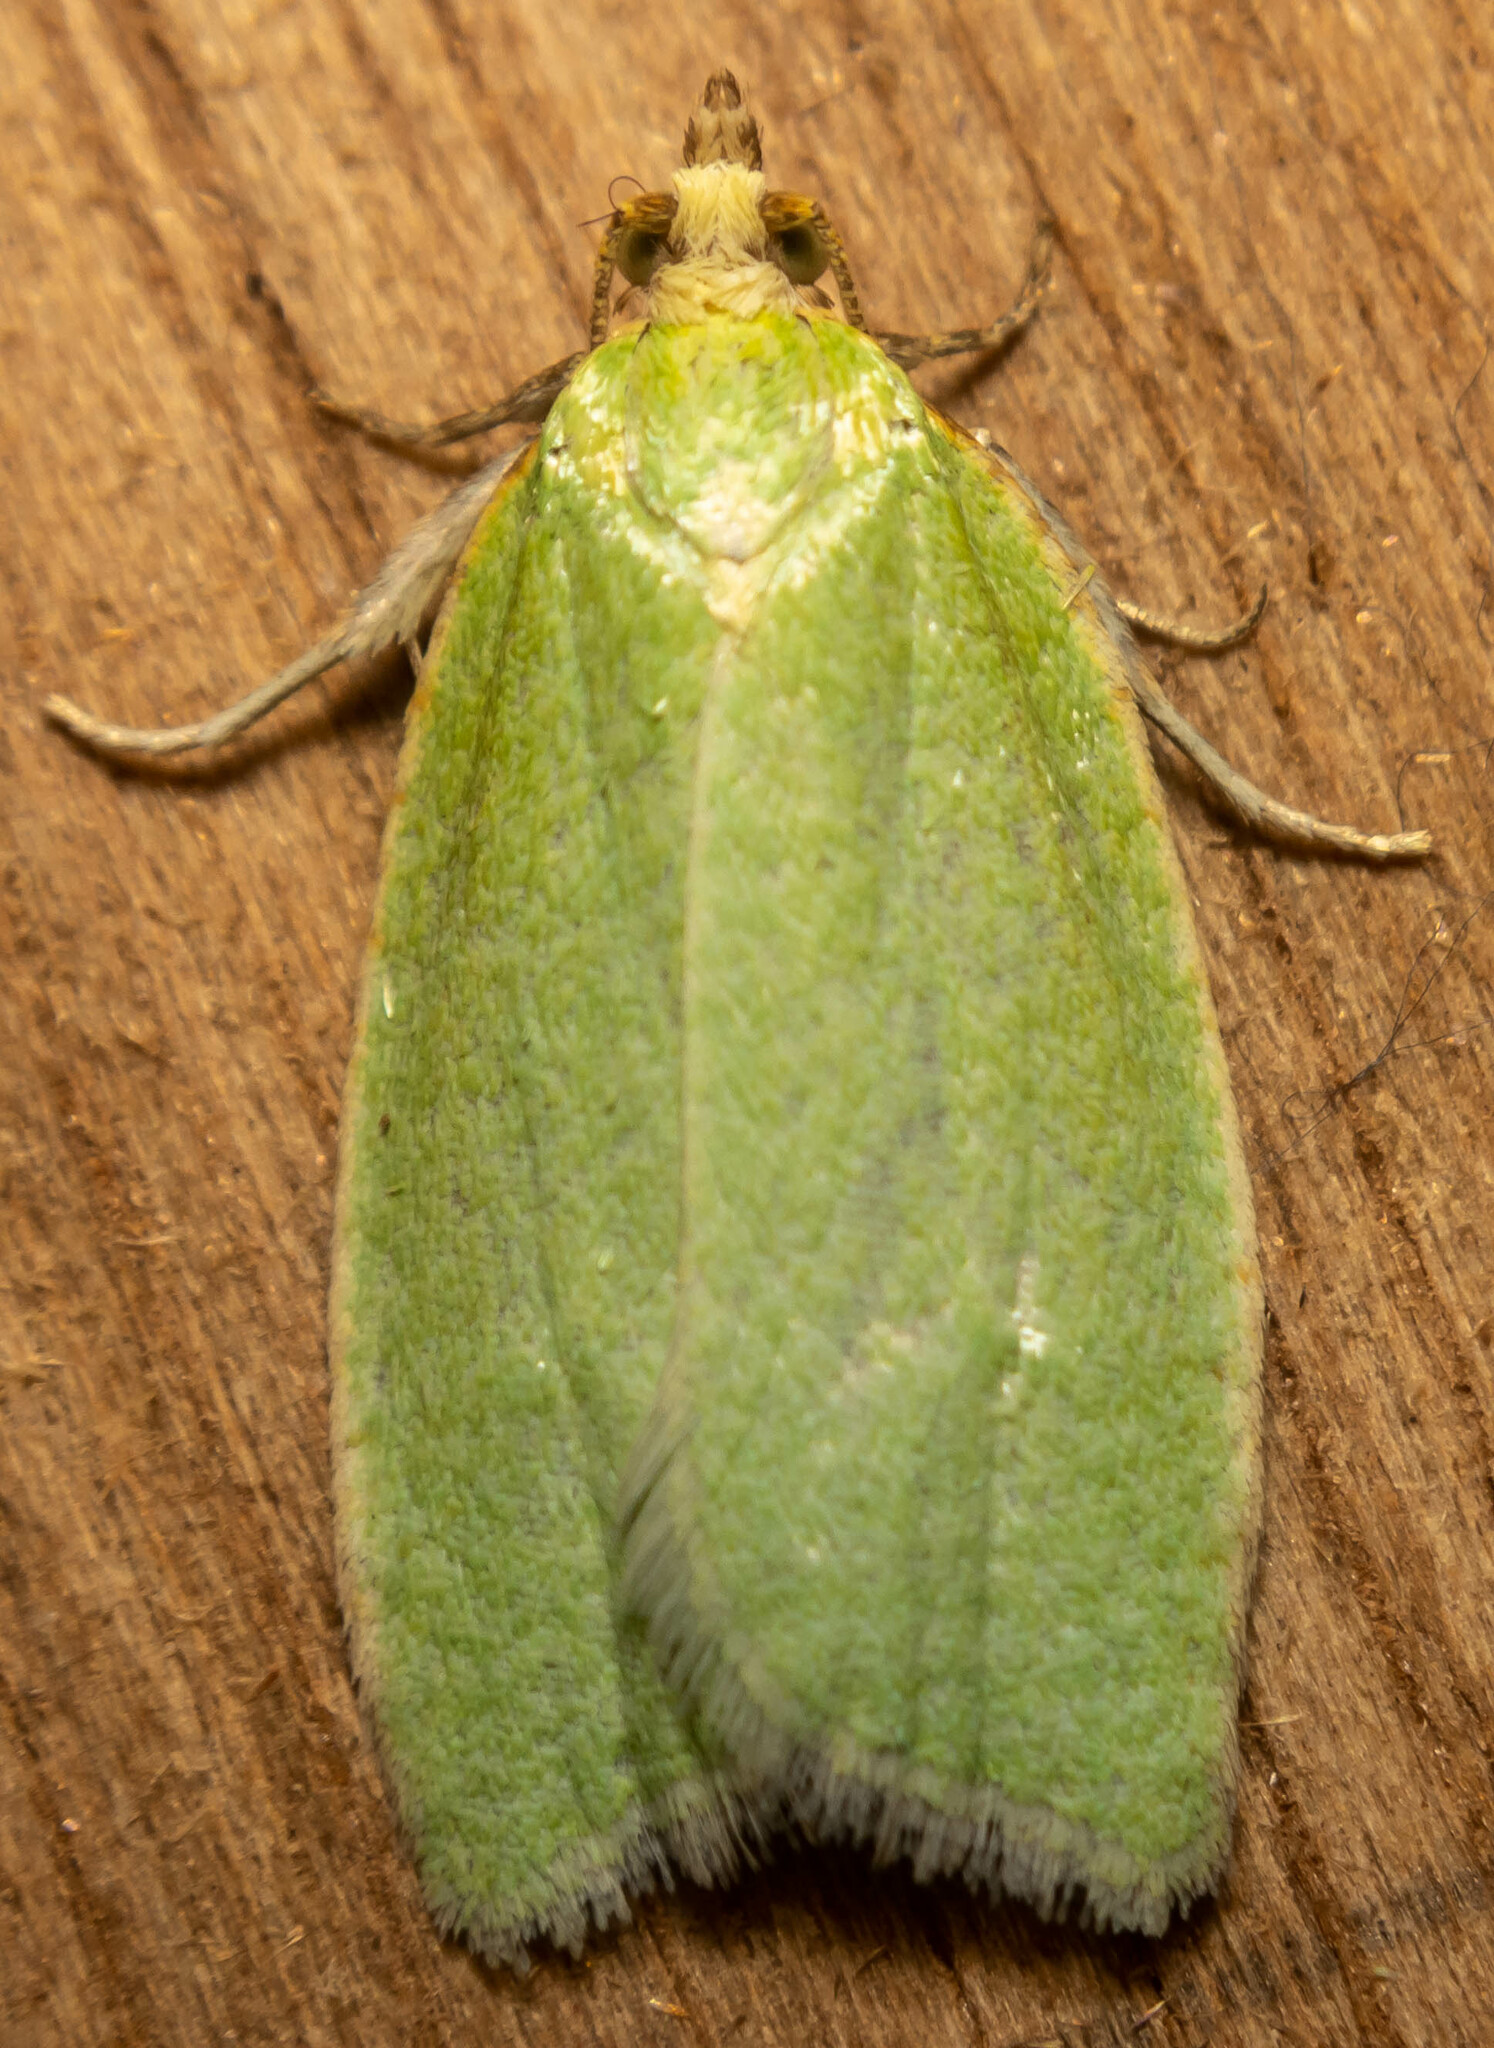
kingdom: Animalia
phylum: Arthropoda
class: Insecta
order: Lepidoptera
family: Tortricidae
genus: Tortrix
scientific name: Tortrix viridana
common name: Green oak tortrix
